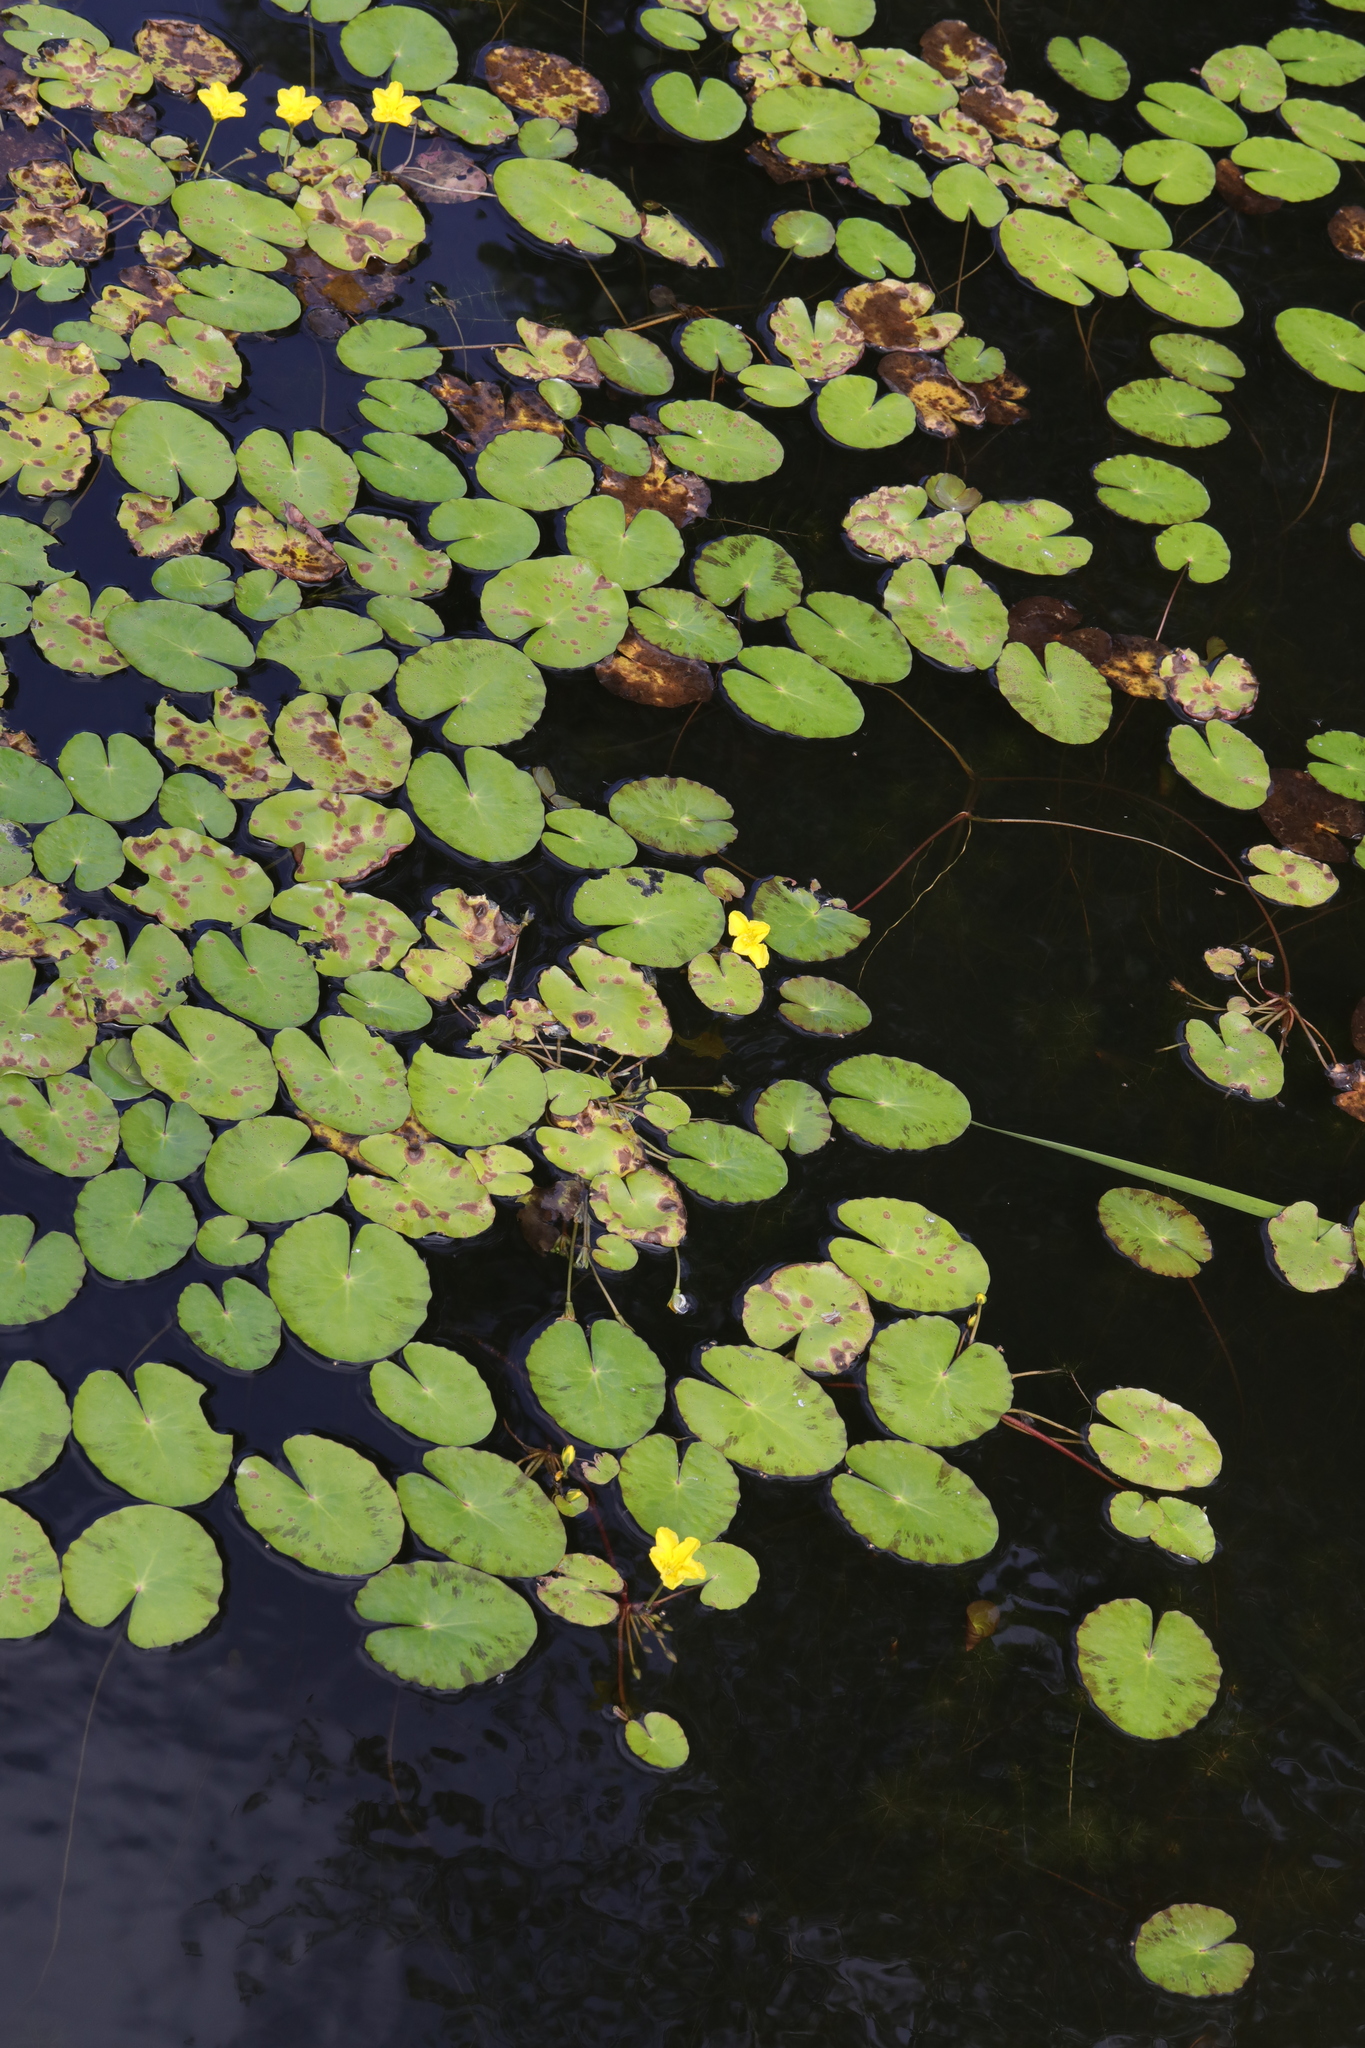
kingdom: Plantae
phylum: Tracheophyta
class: Magnoliopsida
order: Asterales
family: Menyanthaceae
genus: Nymphoides
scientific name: Nymphoides peltata
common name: Fringed water-lily
